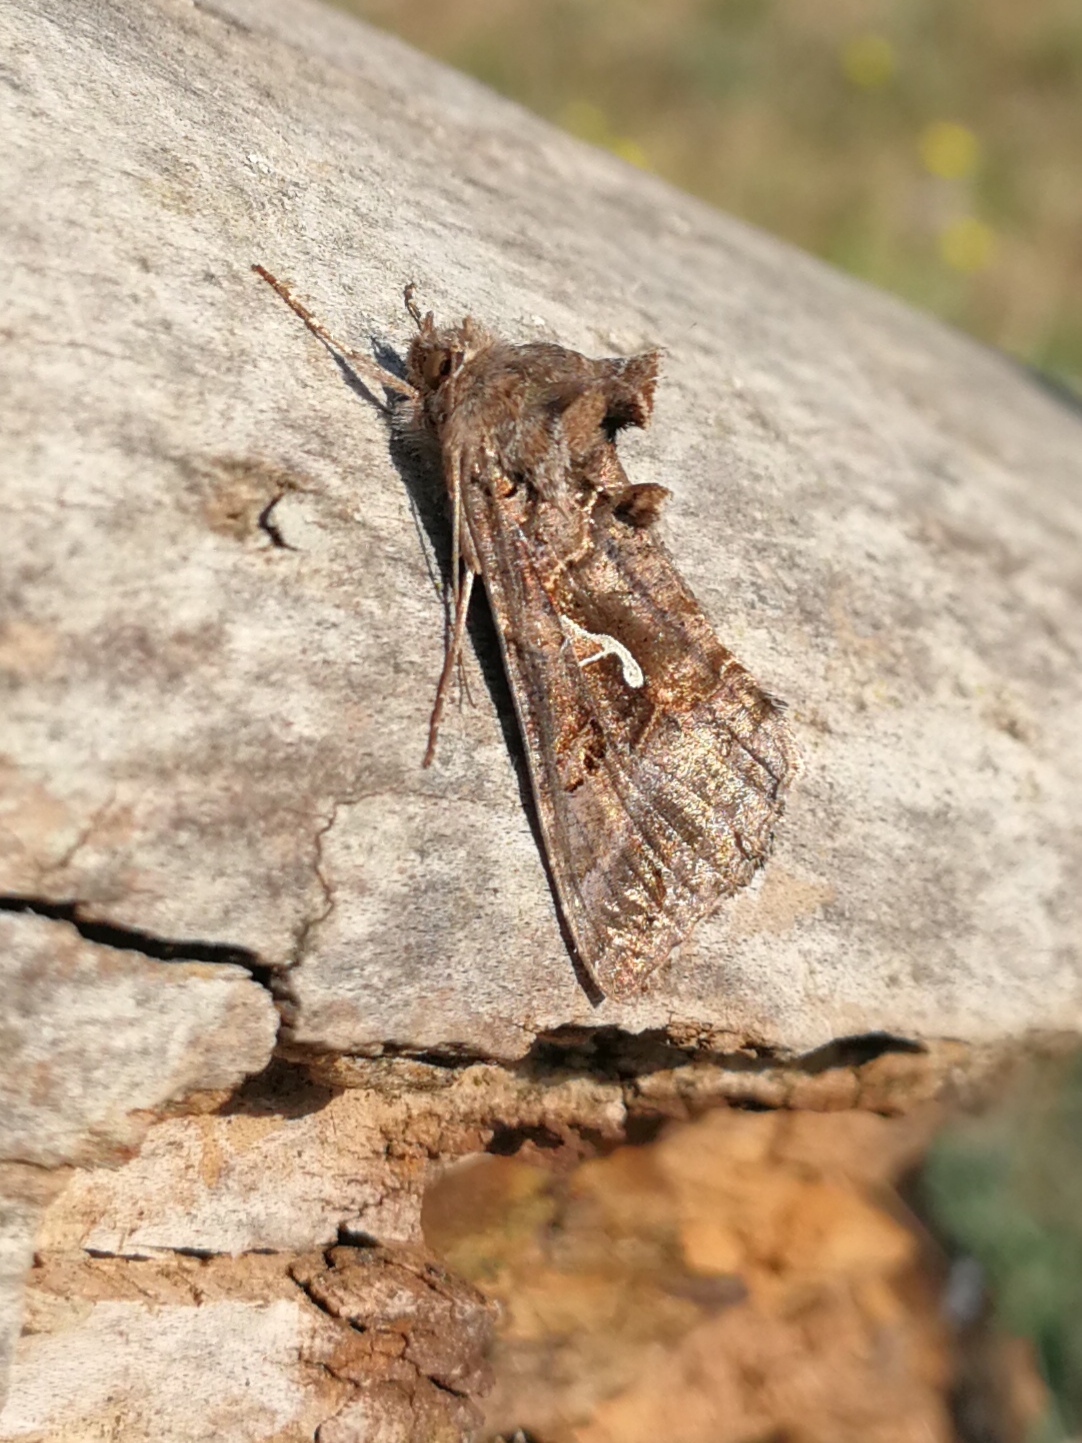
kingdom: Animalia
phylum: Arthropoda
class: Insecta
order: Lepidoptera
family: Noctuidae
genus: Autographa
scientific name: Autographa gamma
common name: Silver y
